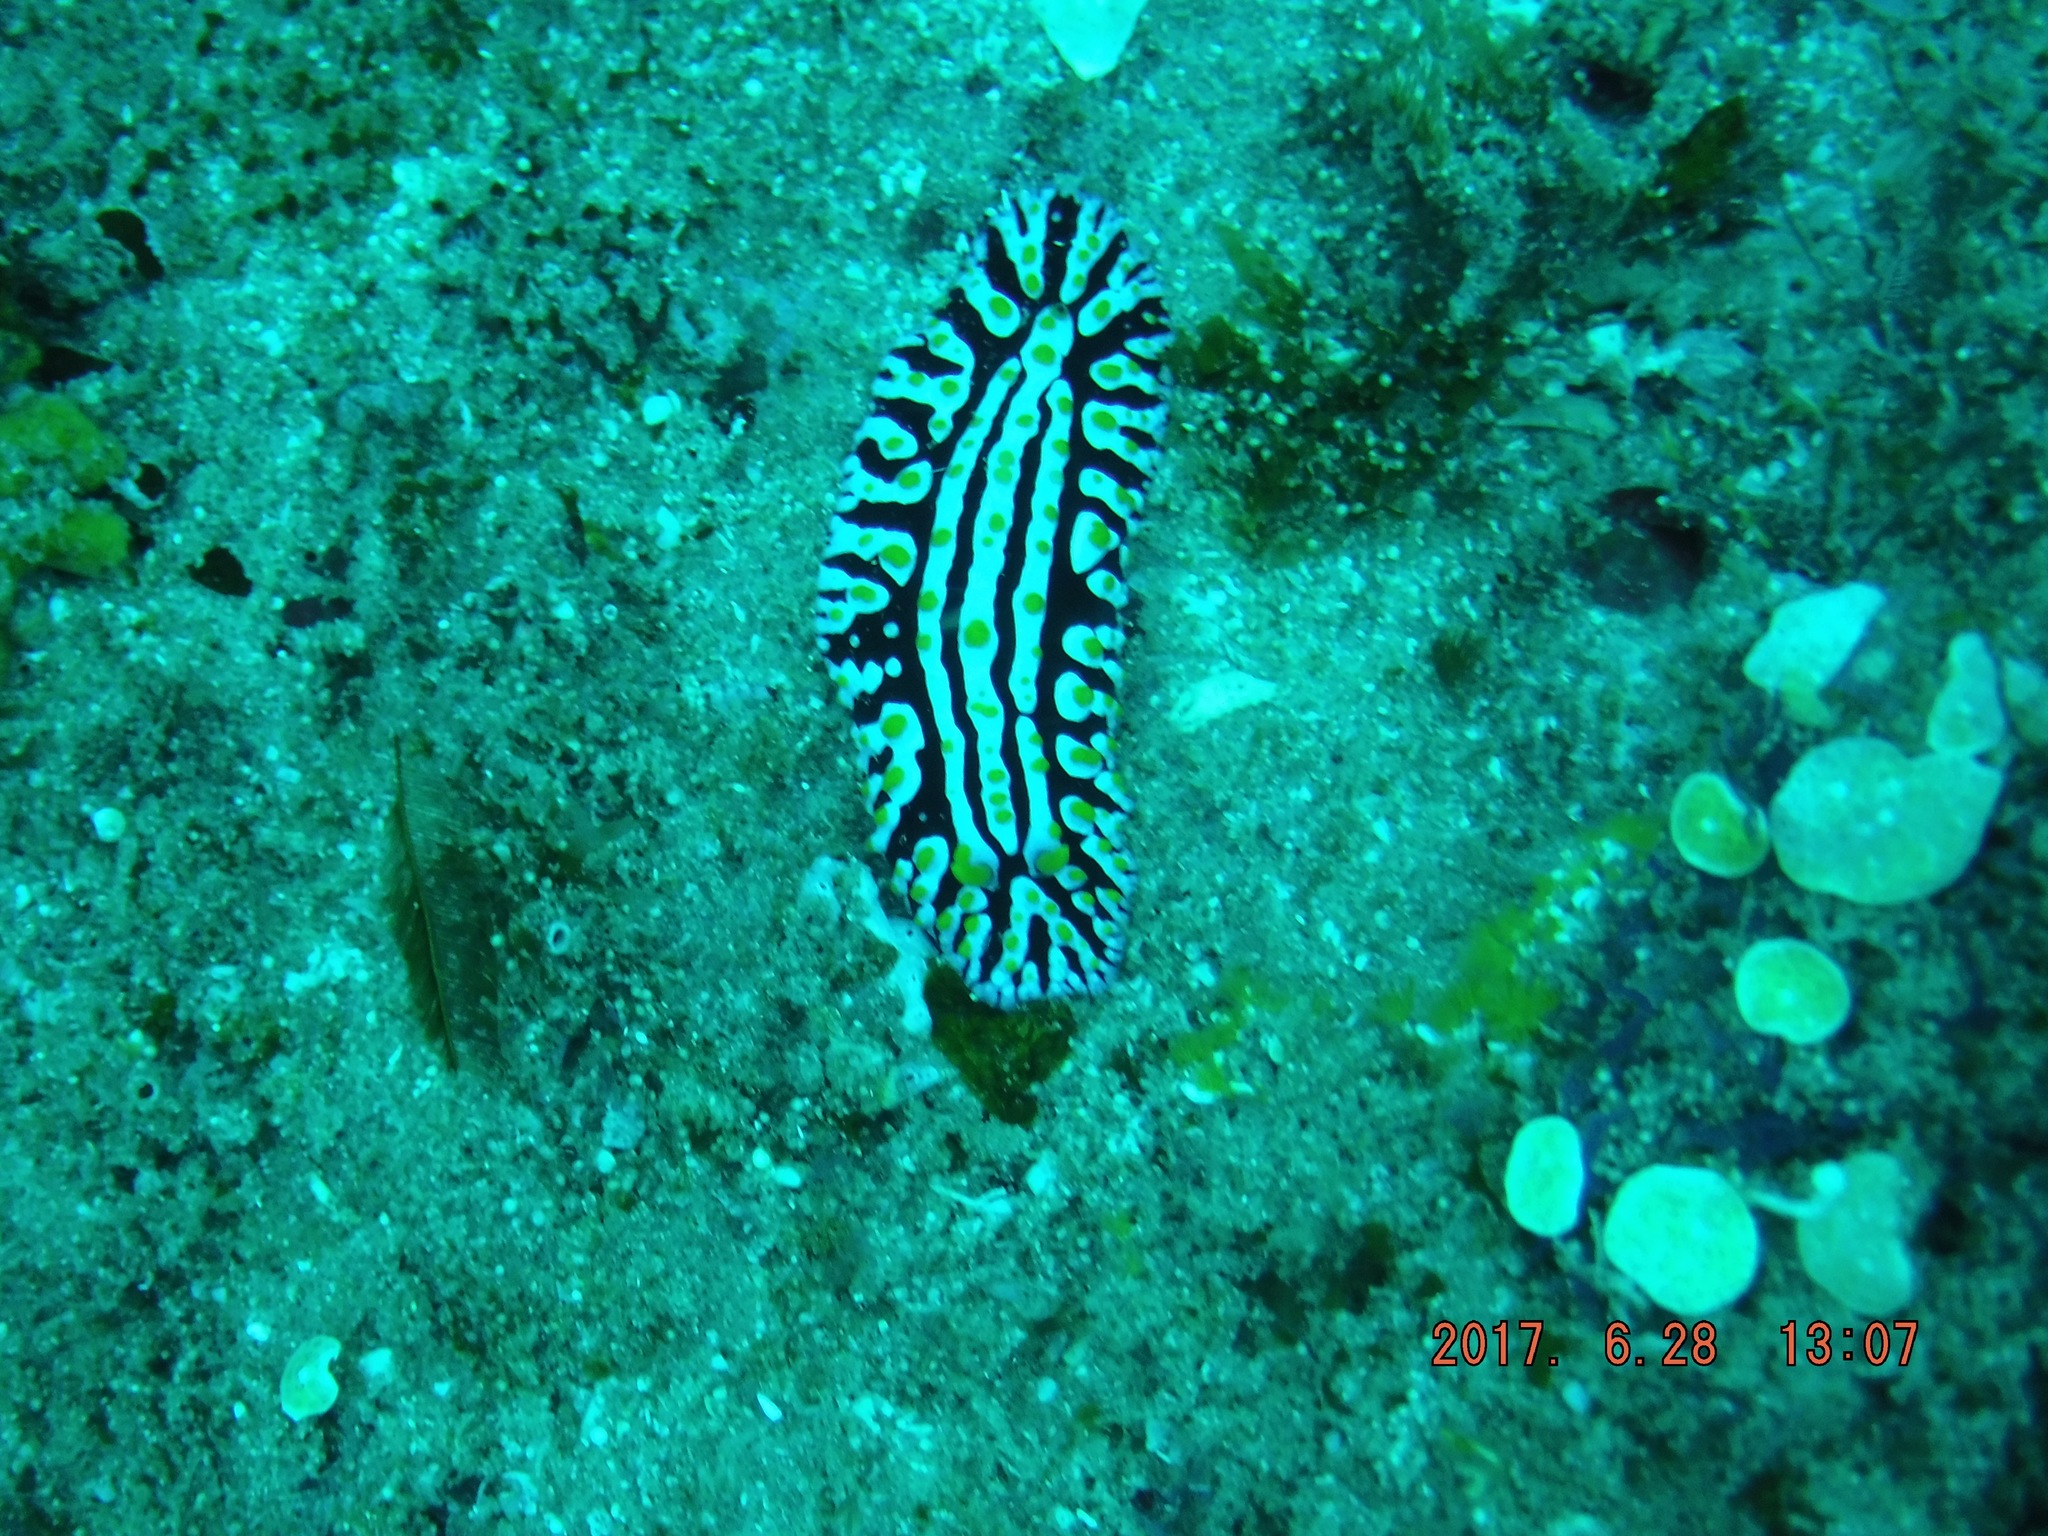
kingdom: Animalia
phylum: Mollusca
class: Gastropoda
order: Nudibranchia
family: Phyllidiidae
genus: Phyllidia
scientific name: Phyllidia varicosa
